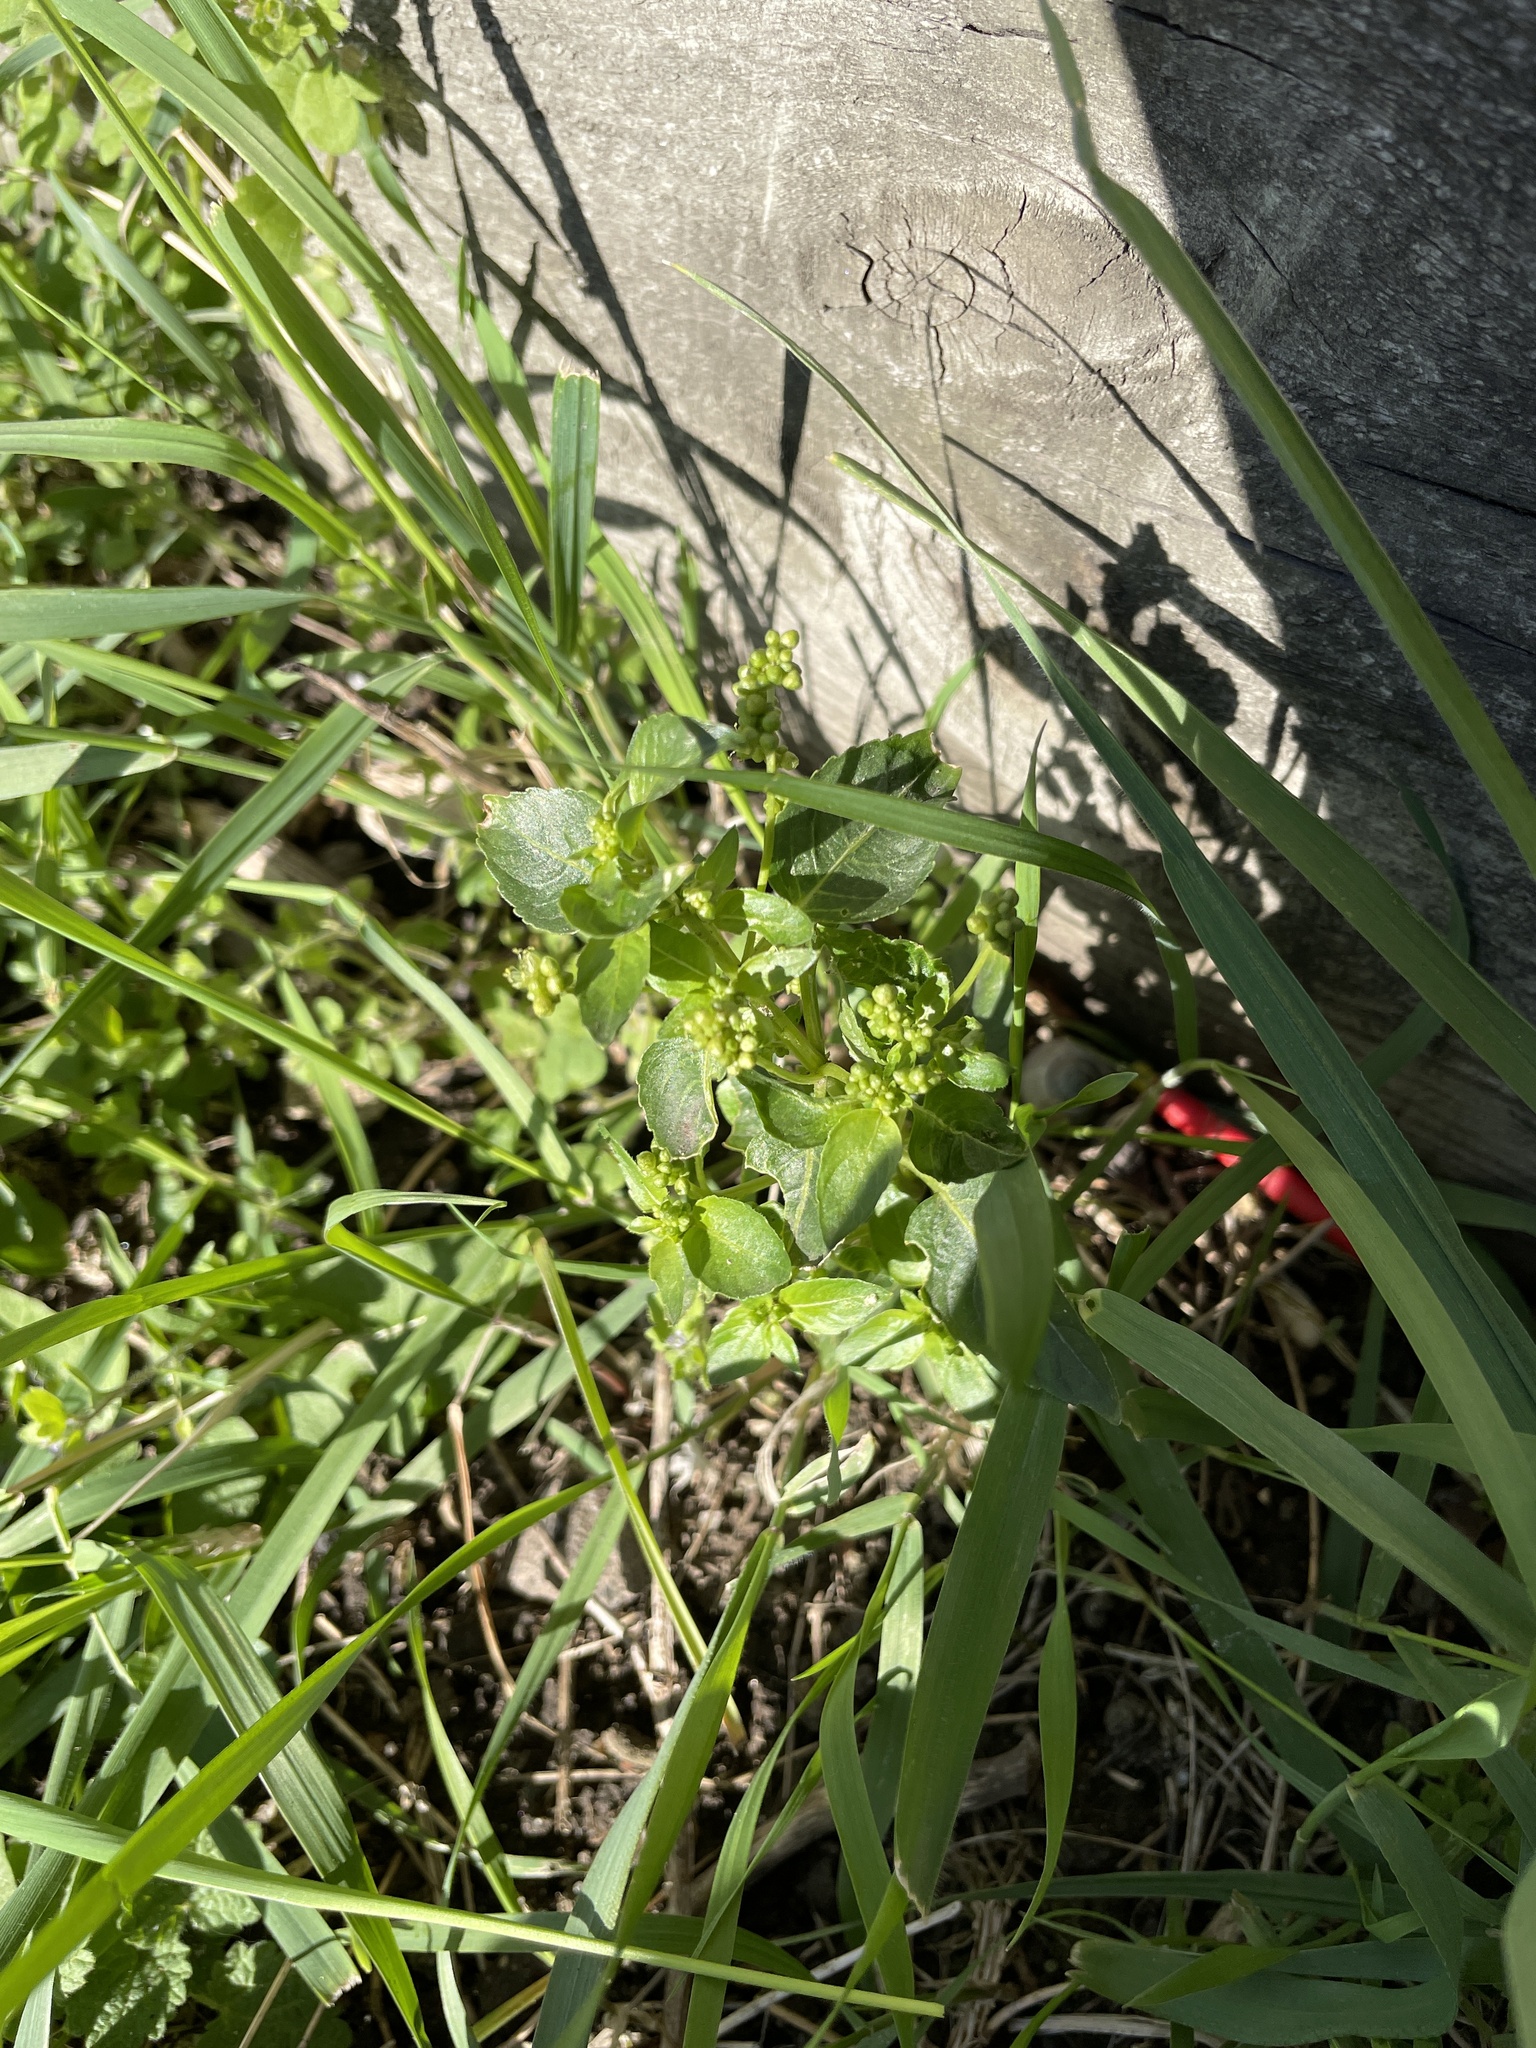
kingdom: Plantae
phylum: Tracheophyta
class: Magnoliopsida
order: Malpighiales
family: Euphorbiaceae
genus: Mercurialis
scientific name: Mercurialis annua
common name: Annual mercury
